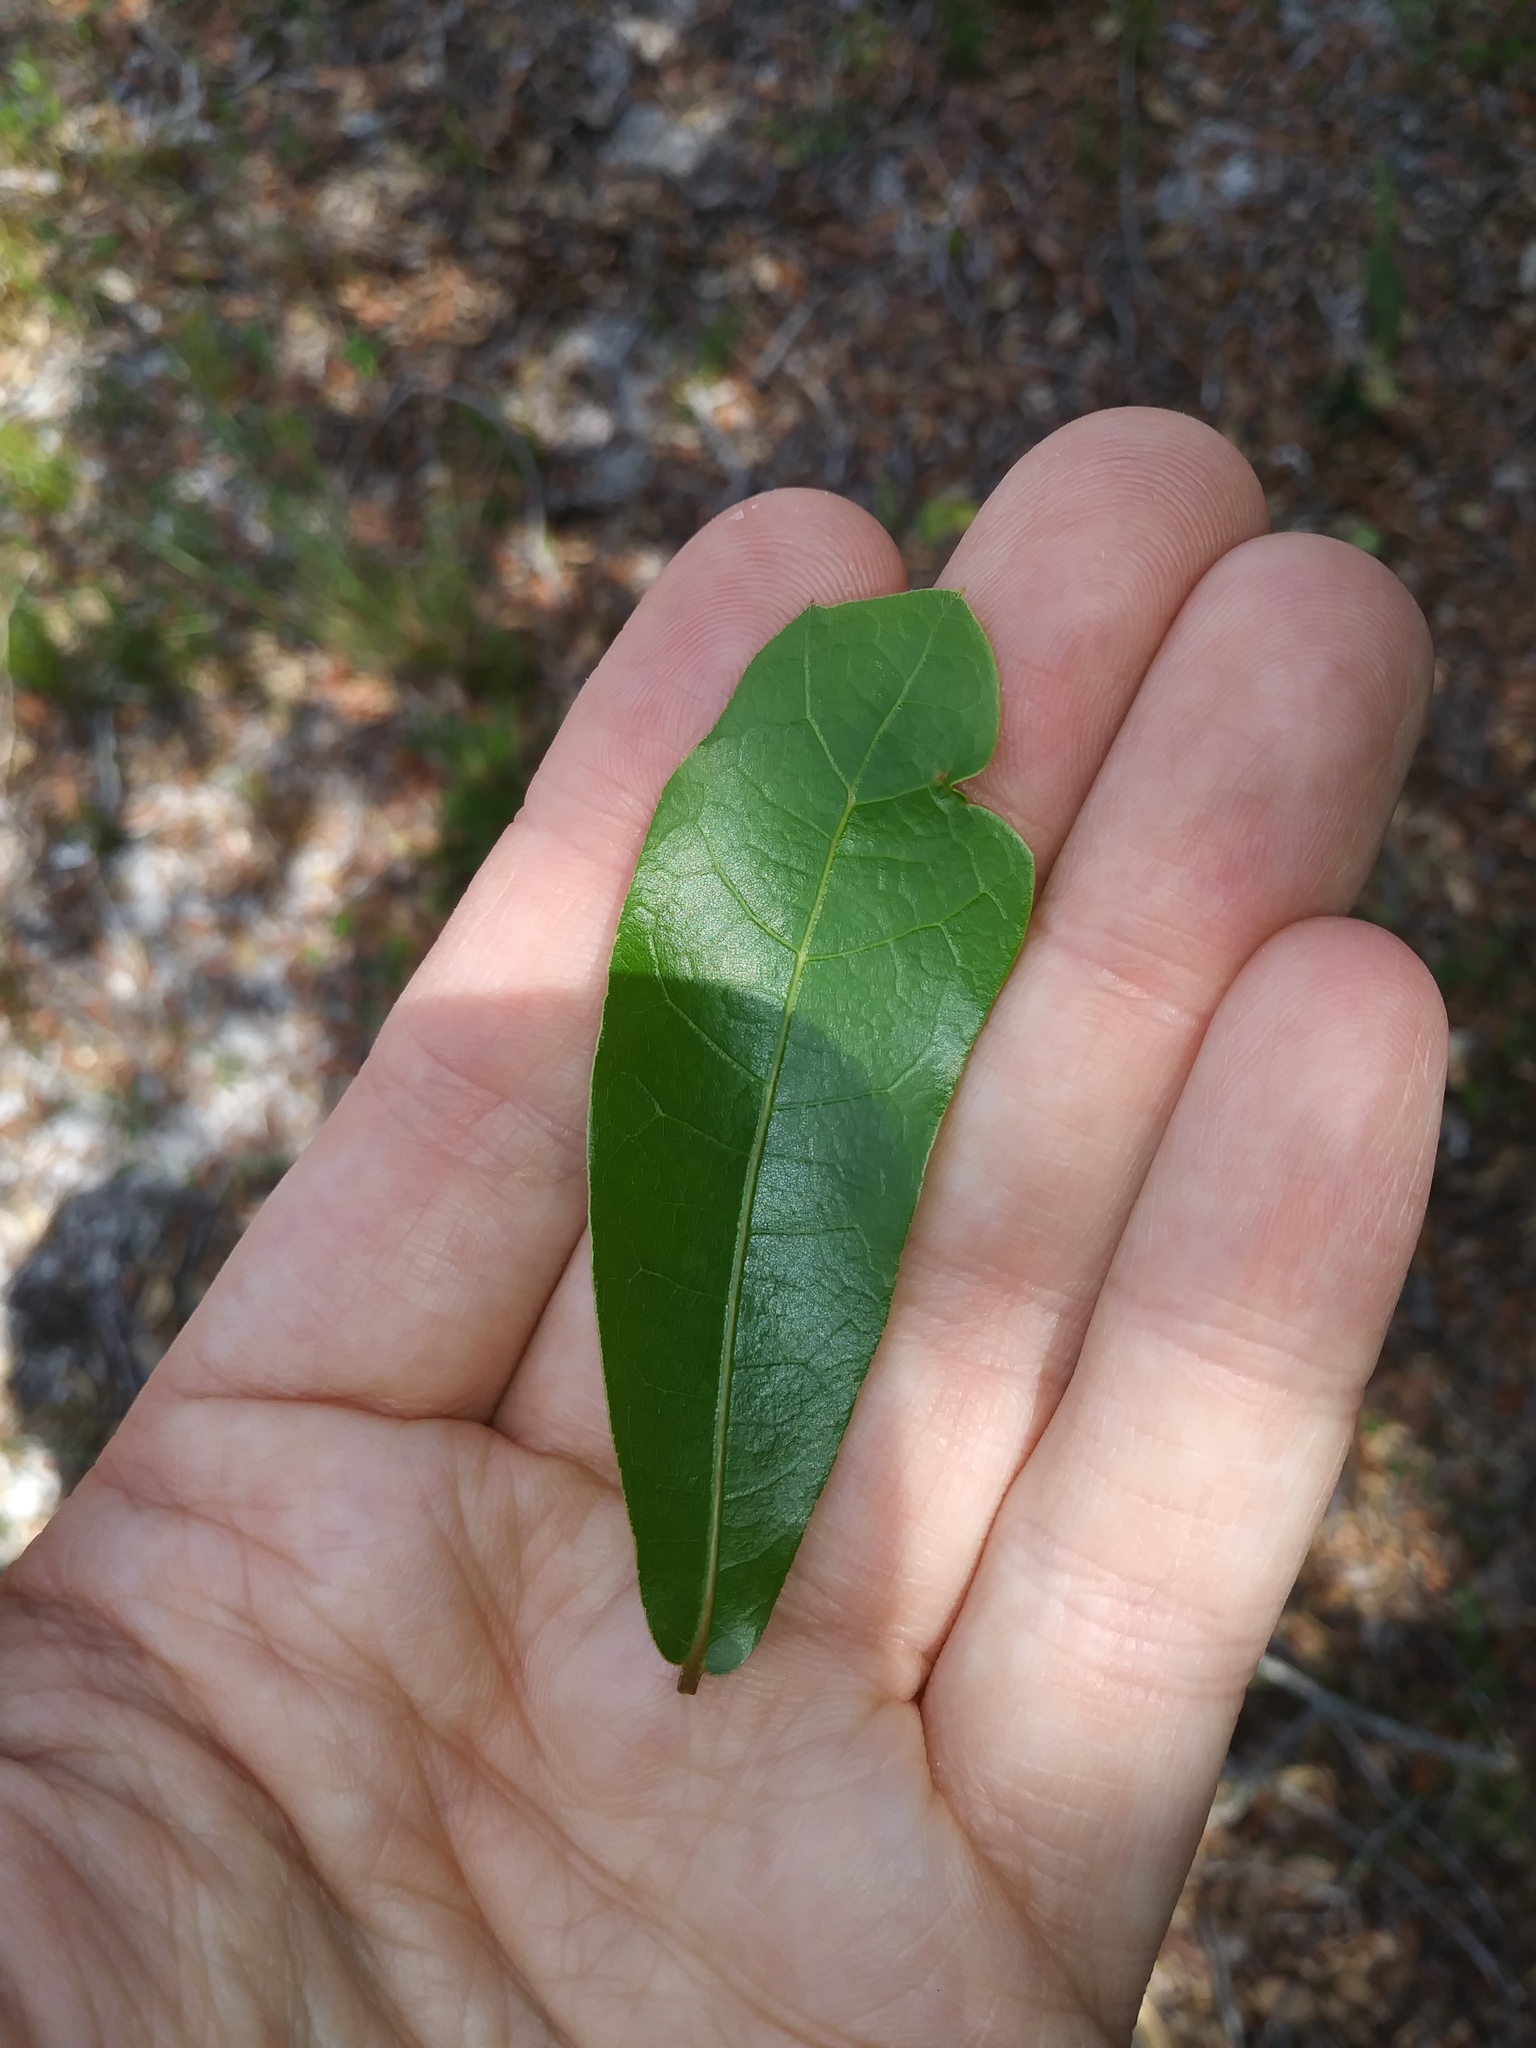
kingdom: Plantae
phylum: Tracheophyta
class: Magnoliopsida
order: Fagales
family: Fagaceae
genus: Quercus
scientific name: Quercus hemisphaerica
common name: Darlington oak
